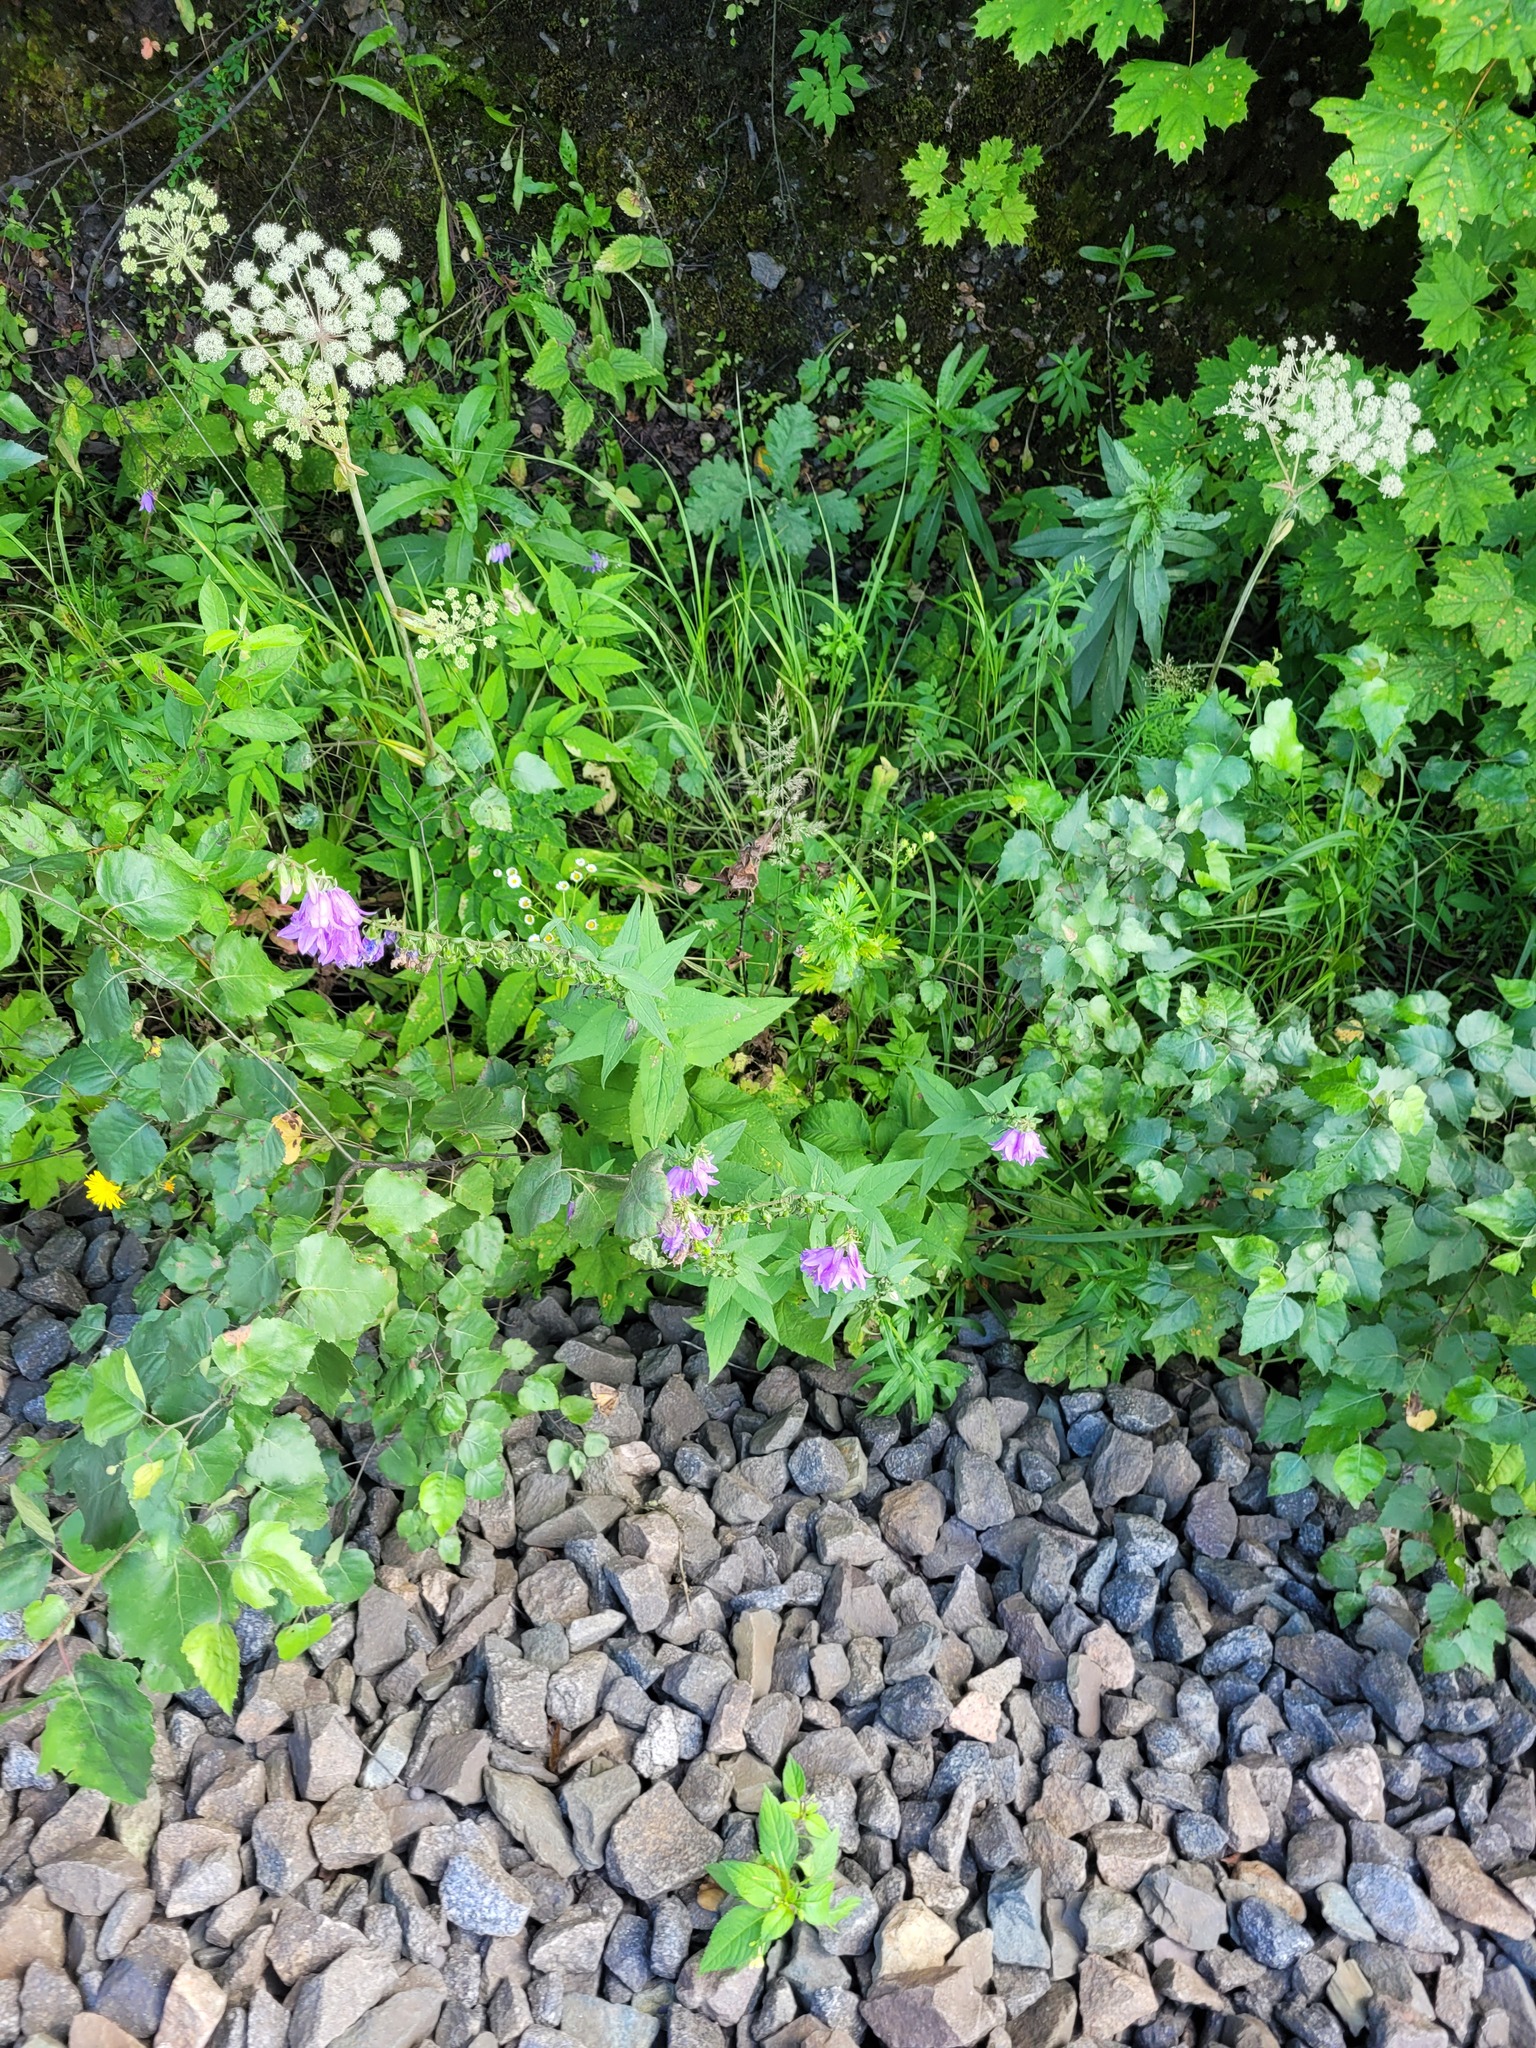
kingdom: Plantae
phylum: Tracheophyta
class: Magnoliopsida
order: Asterales
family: Campanulaceae
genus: Campanula
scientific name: Campanula rapunculoides
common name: Creeping bellflower
